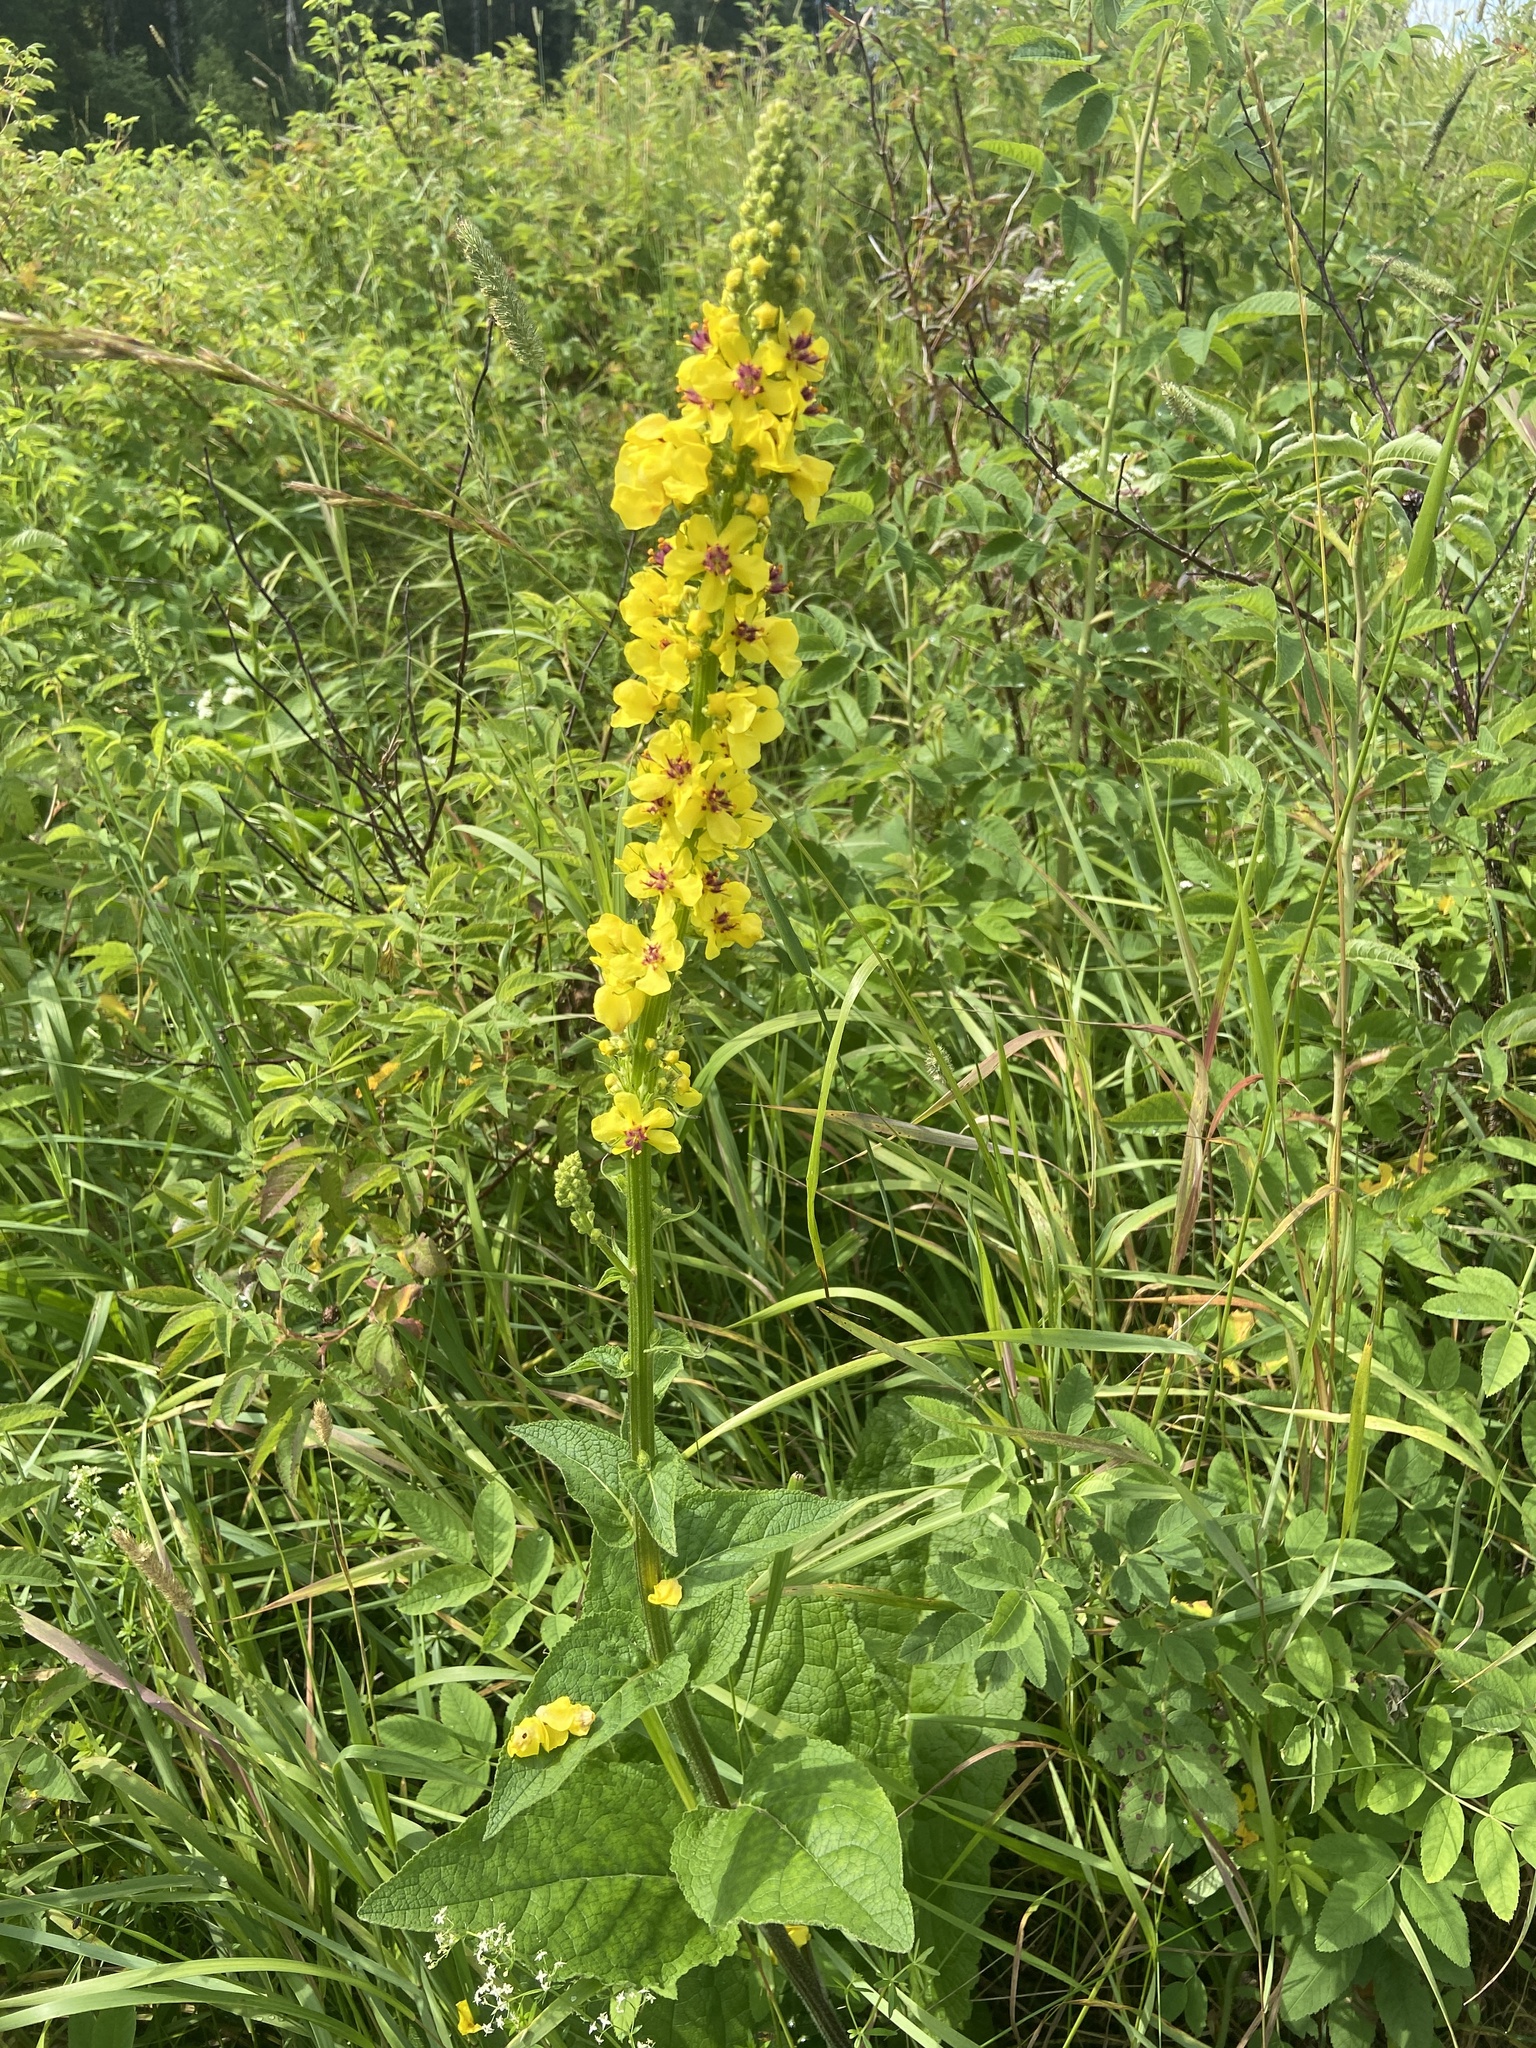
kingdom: Plantae
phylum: Tracheophyta
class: Magnoliopsida
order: Lamiales
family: Scrophulariaceae
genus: Verbascum
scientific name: Verbascum nigrum
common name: Dark mullein
